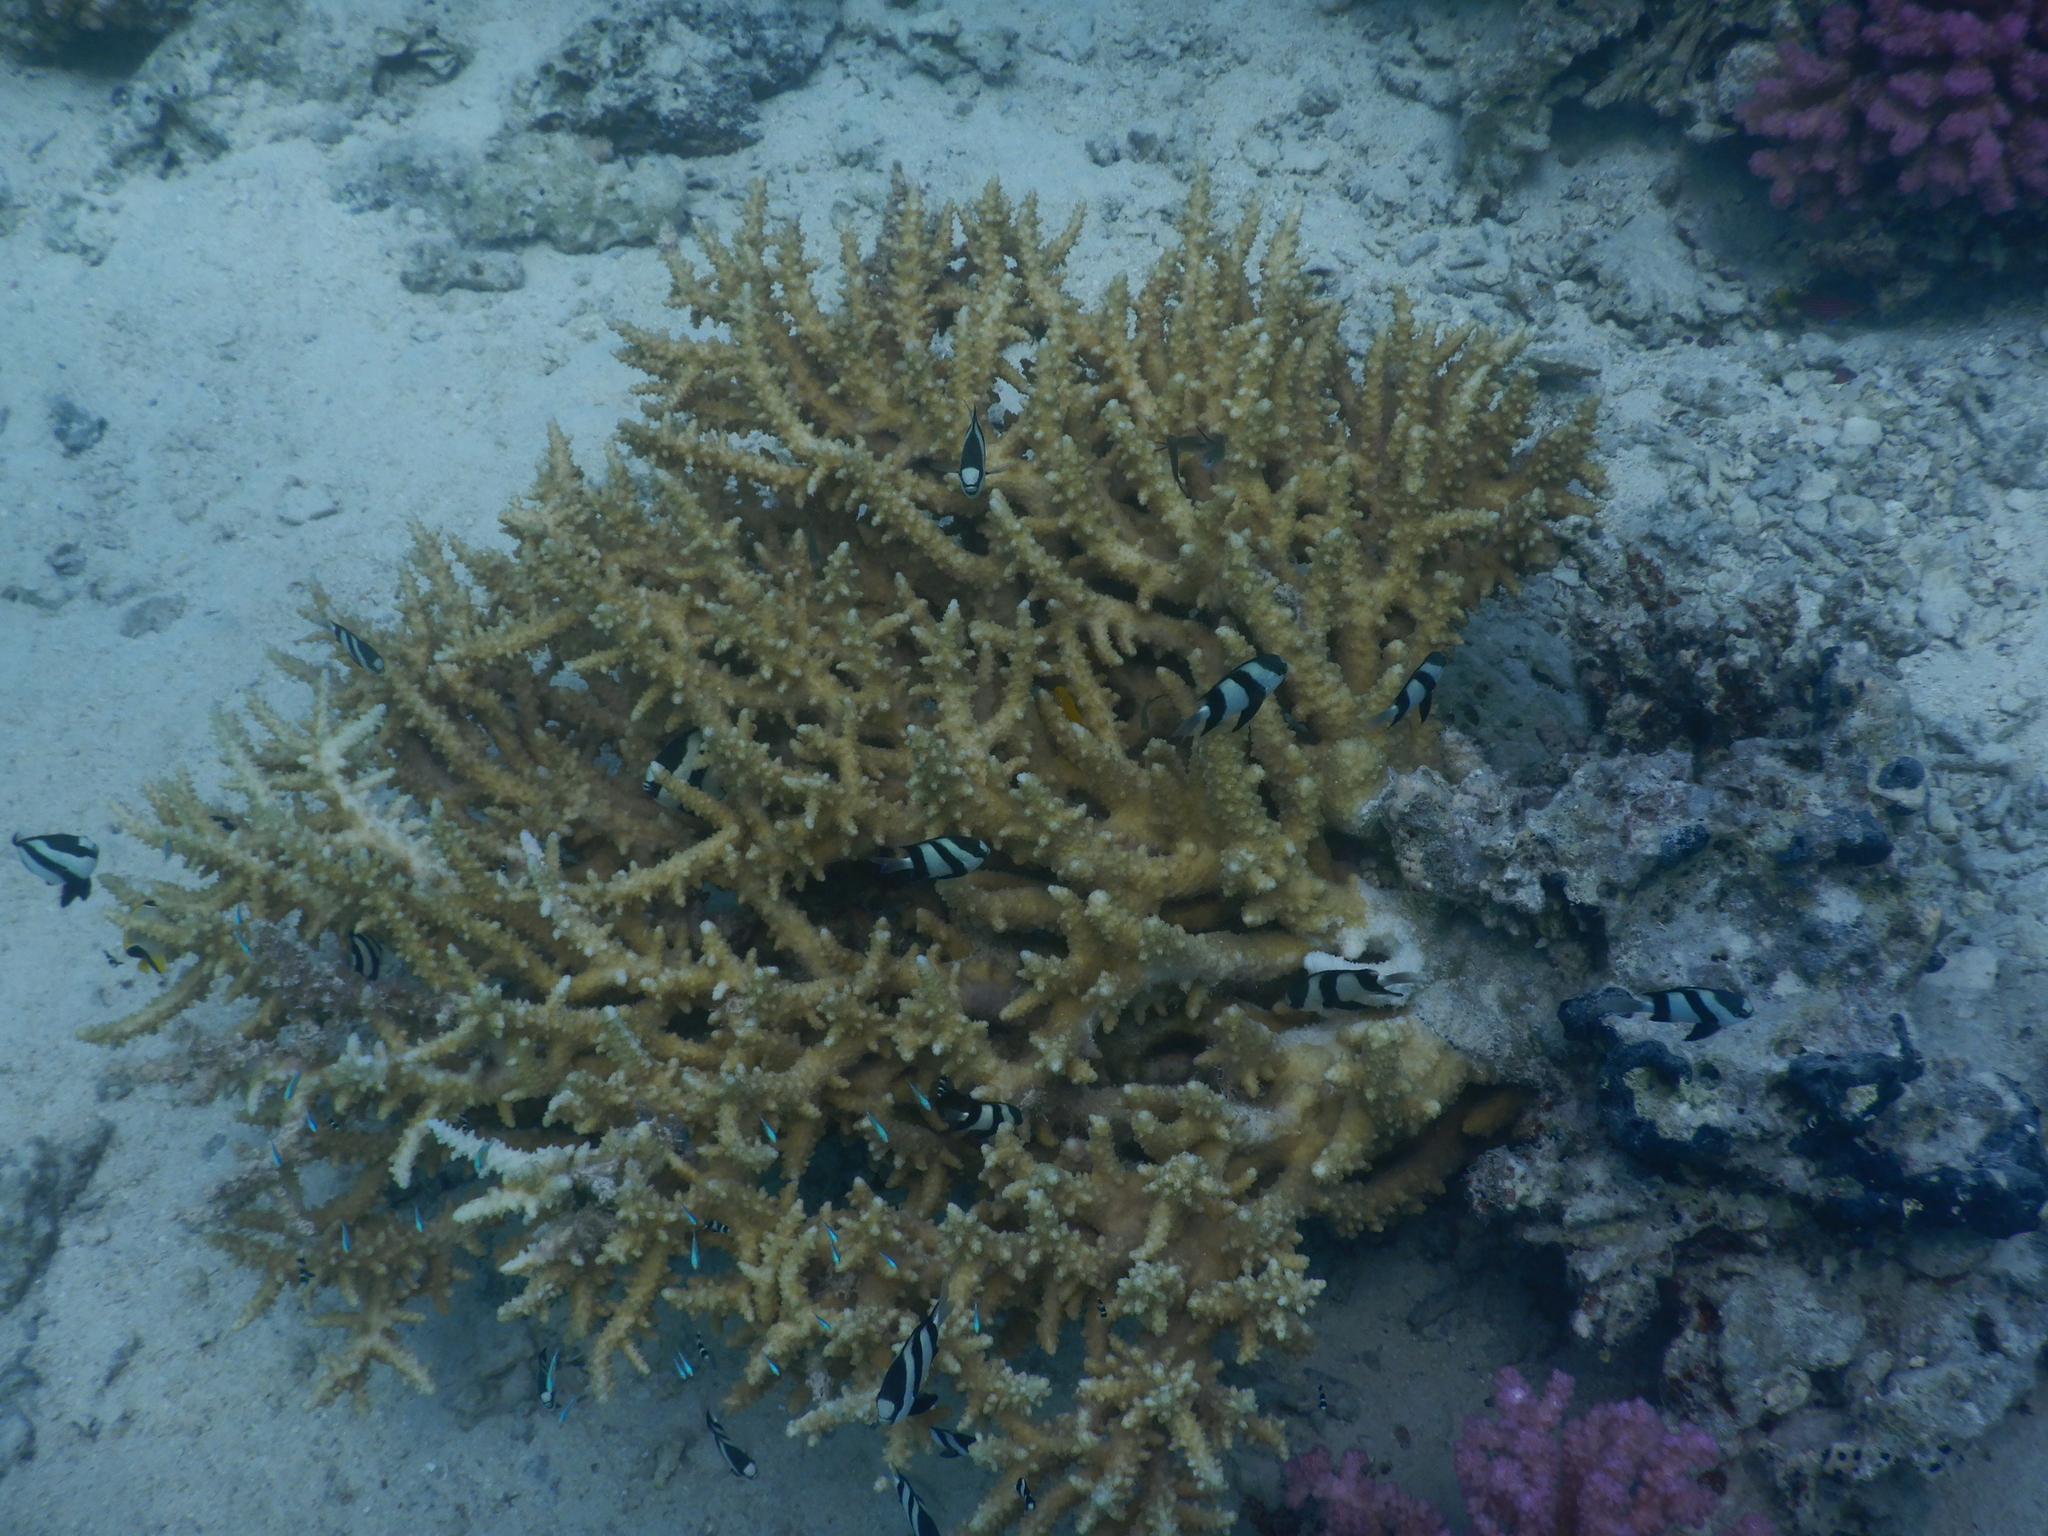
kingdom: Animalia
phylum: Chordata
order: Perciformes
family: Pomacentridae
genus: Dascyllus
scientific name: Dascyllus abudafur
